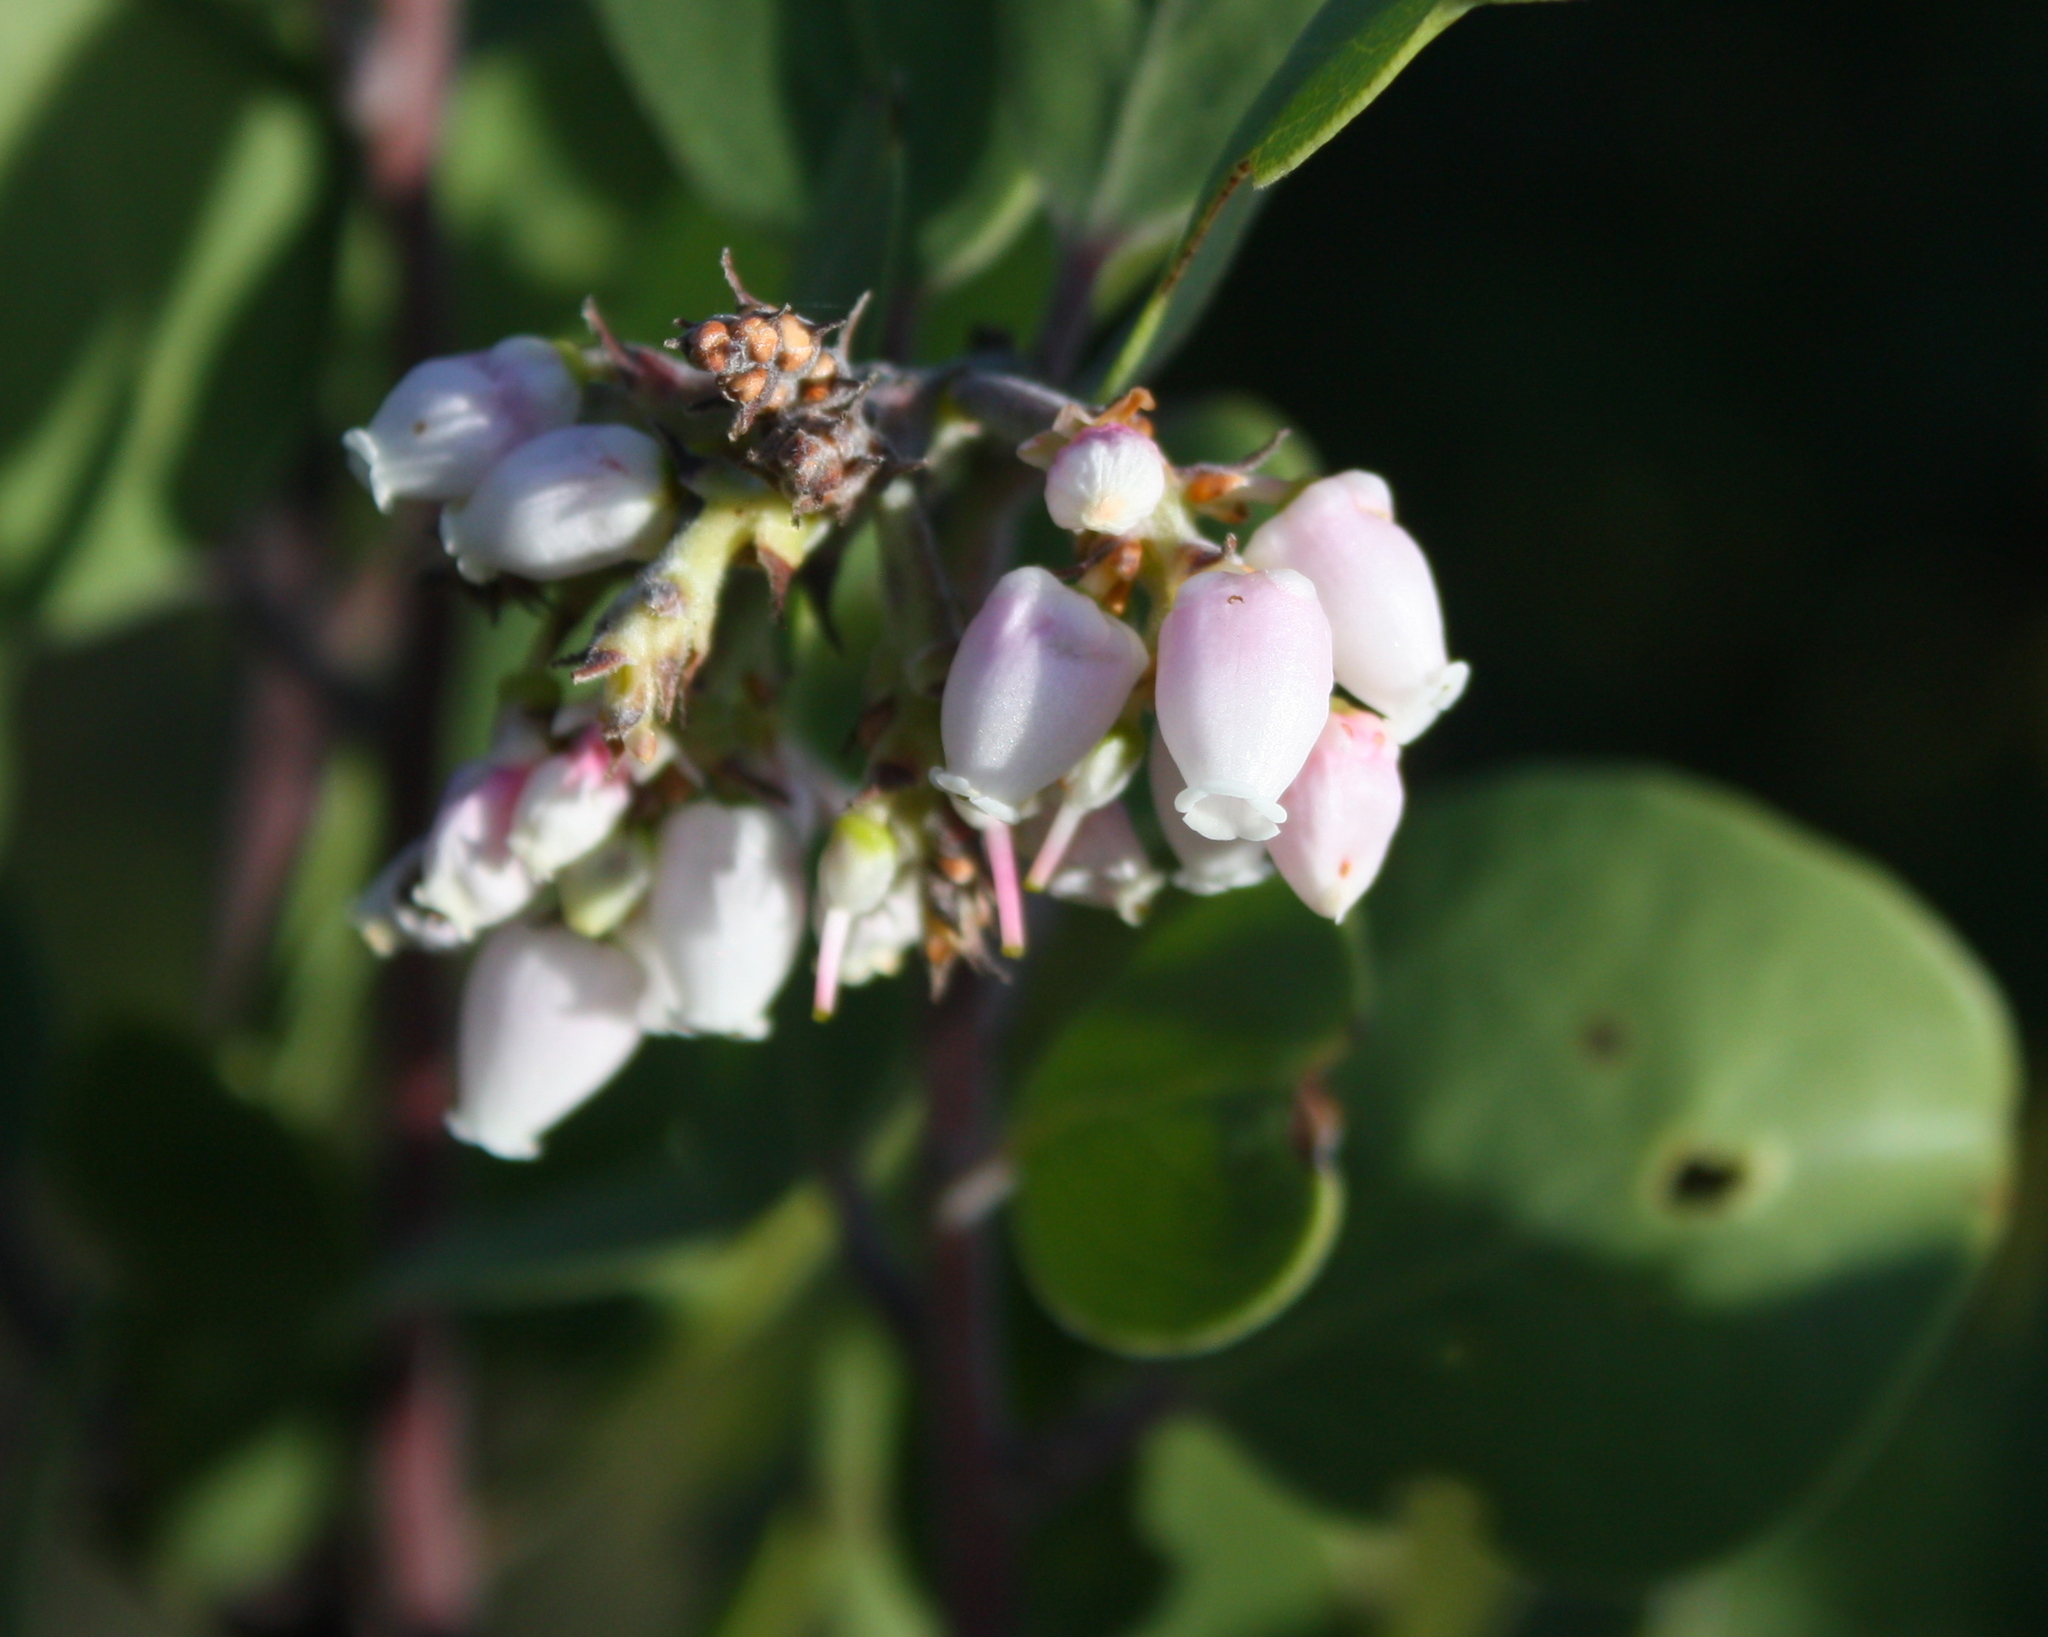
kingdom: Plantae
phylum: Tracheophyta
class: Magnoliopsida
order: Ericales
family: Ericaceae
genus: Arctostaphylos
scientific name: Arctostaphylos manzanita
